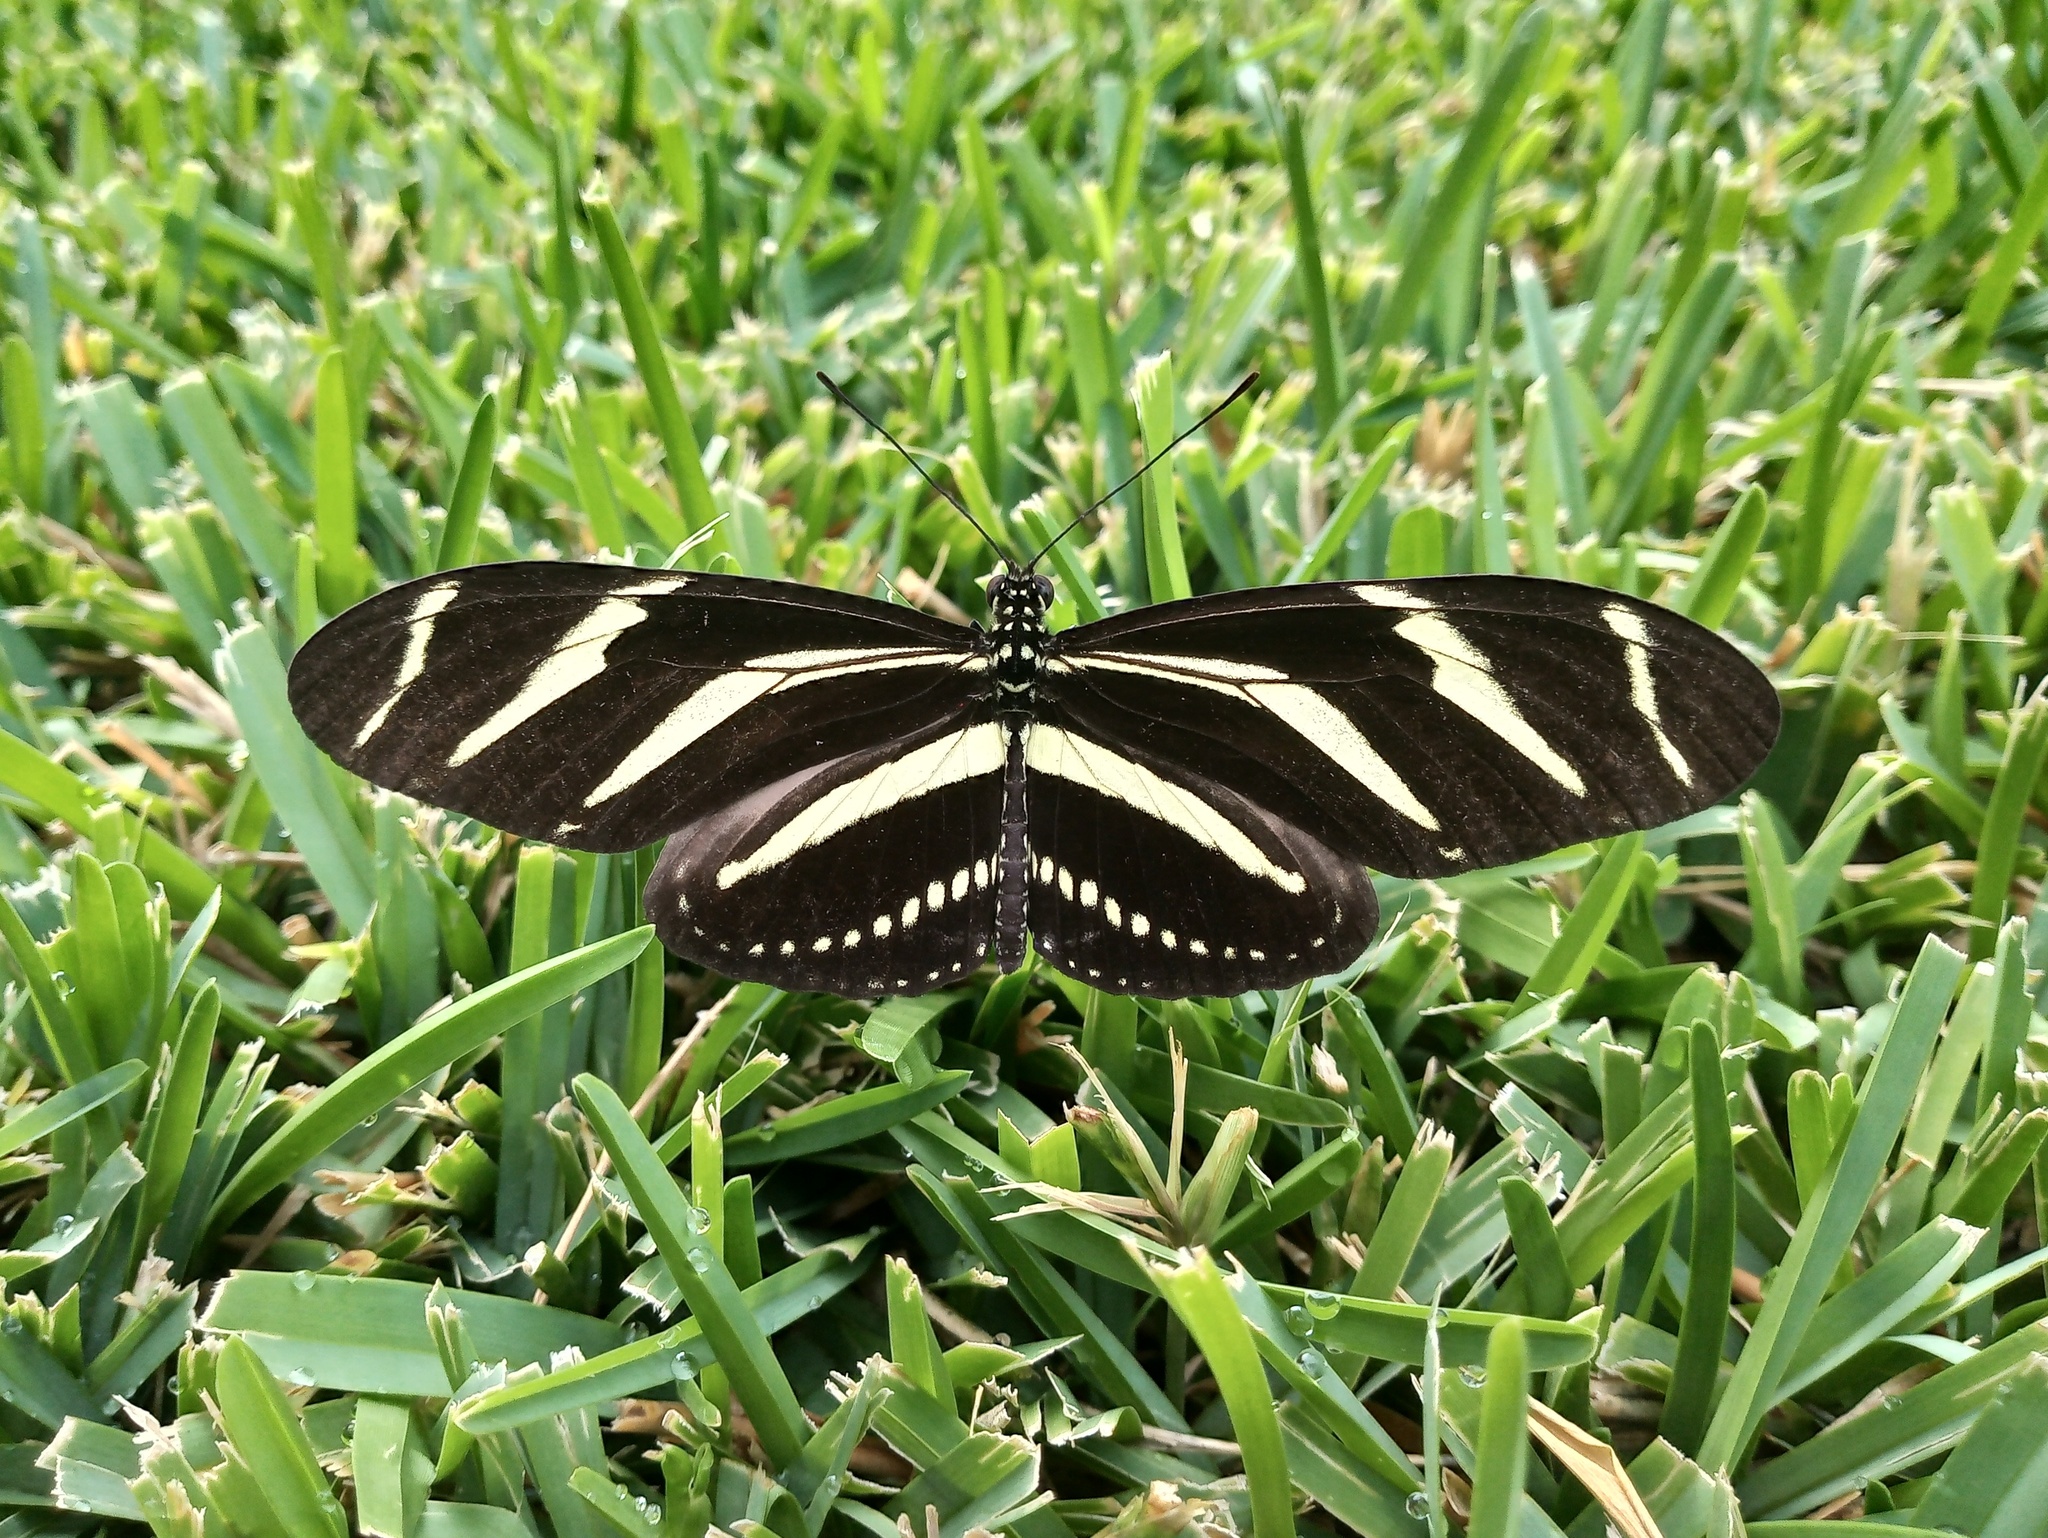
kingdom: Animalia
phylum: Arthropoda
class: Insecta
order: Lepidoptera
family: Nymphalidae
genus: Heliconius
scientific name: Heliconius charithonia
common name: Zebra long wing
